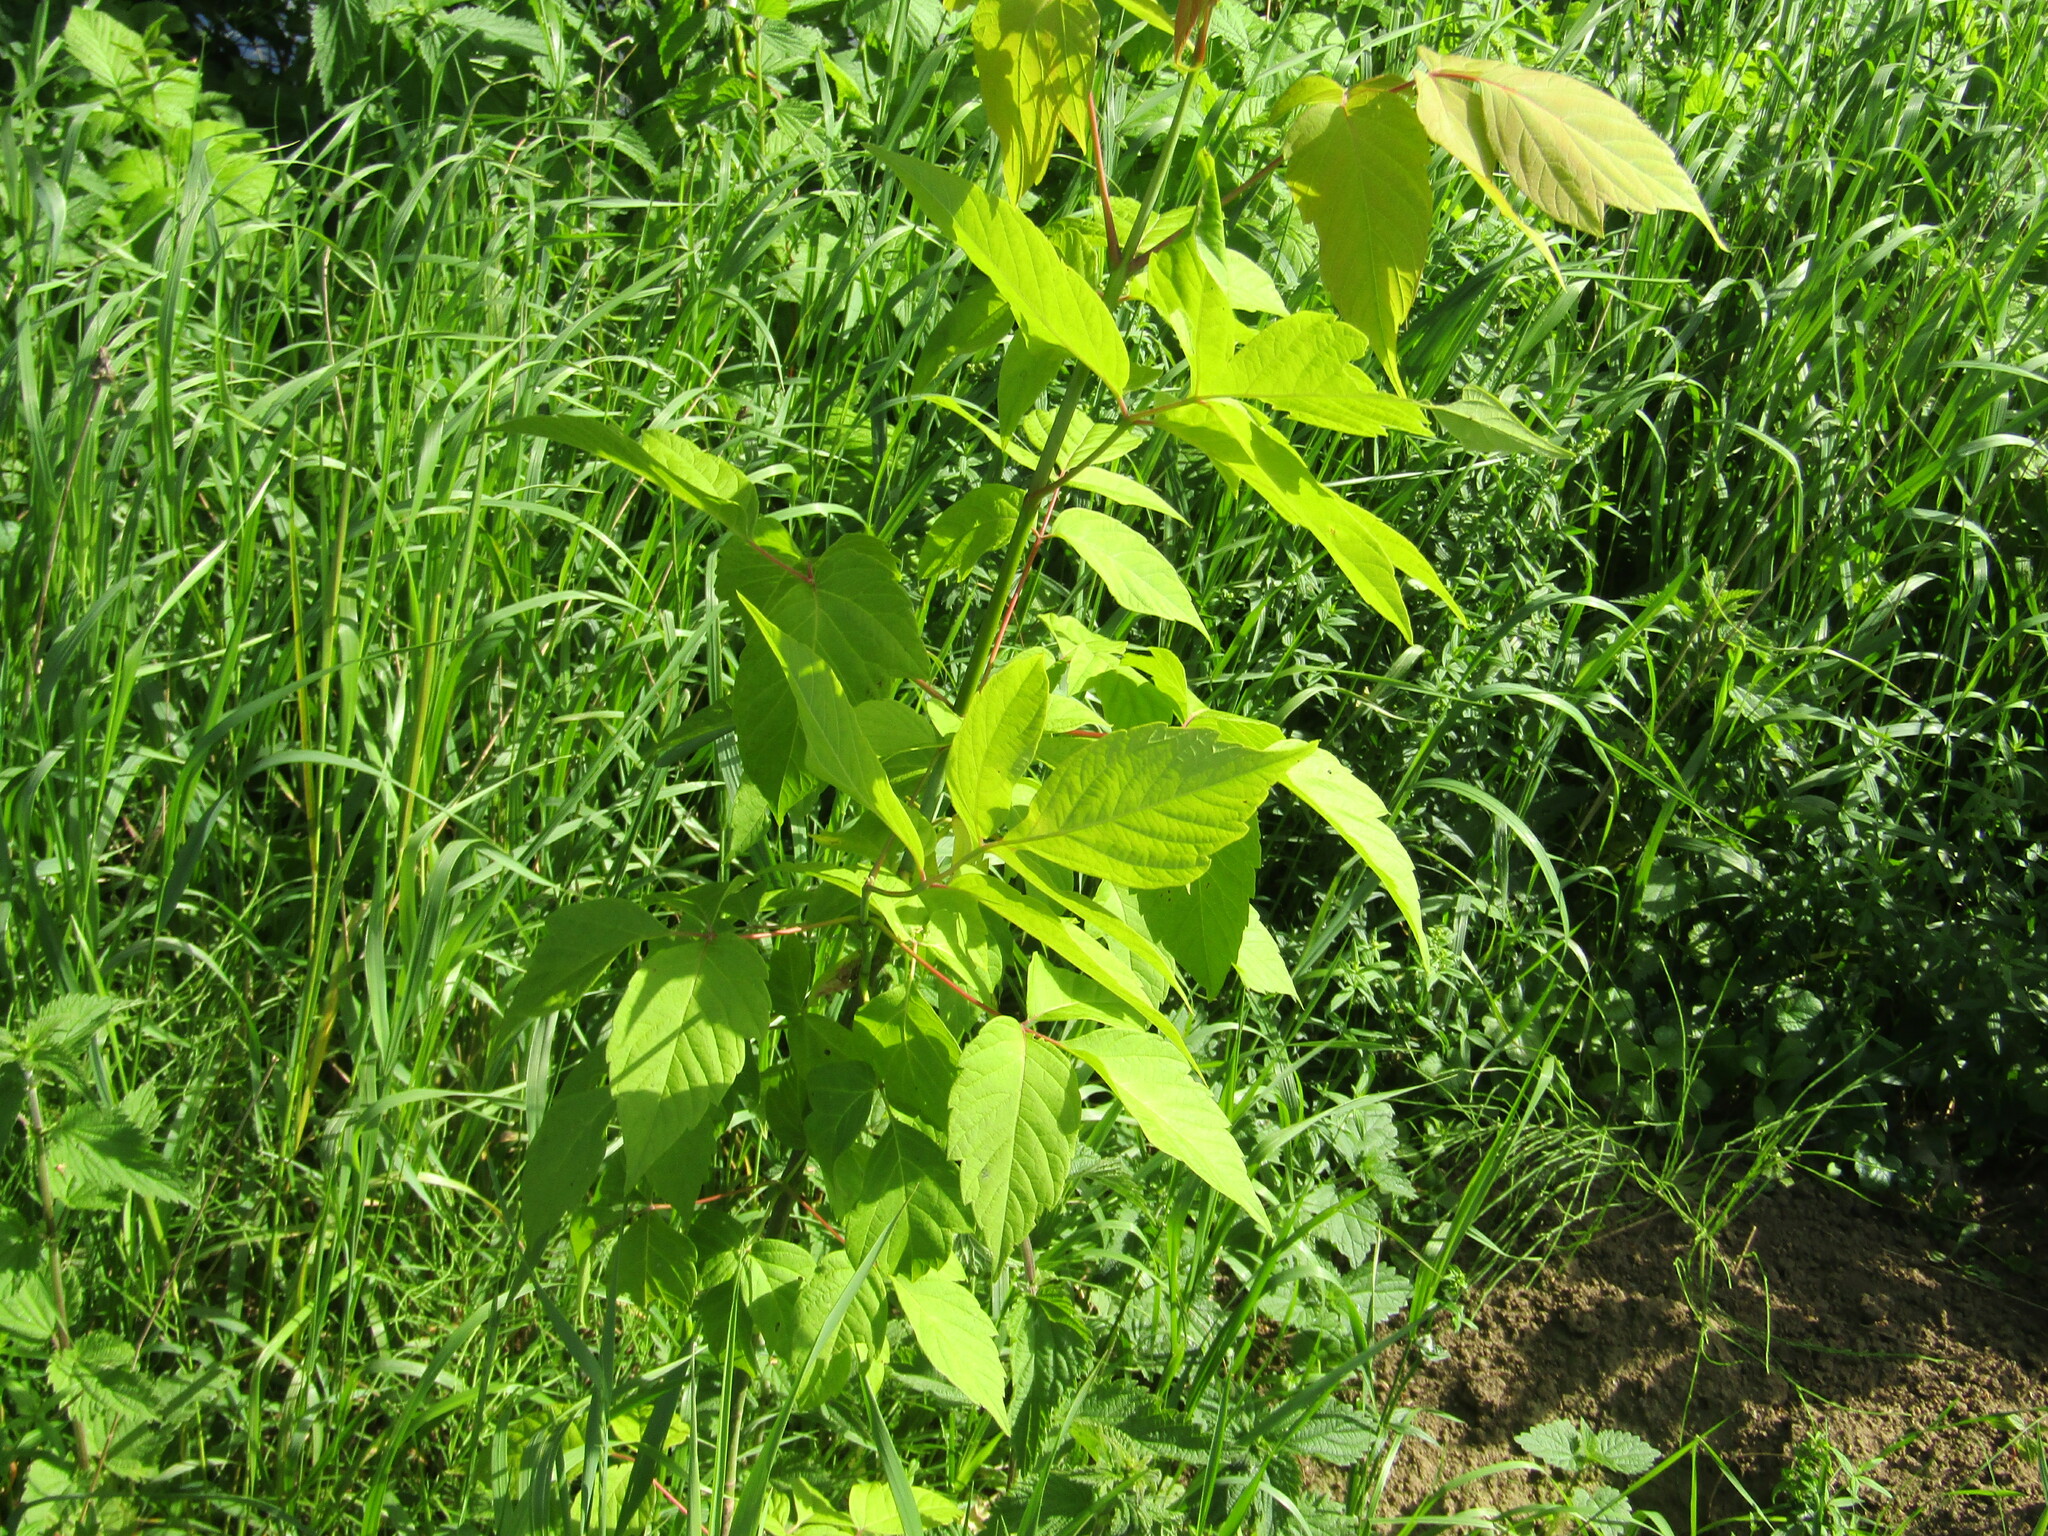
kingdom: Plantae
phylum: Tracheophyta
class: Magnoliopsida
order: Sapindales
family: Sapindaceae
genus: Acer
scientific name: Acer negundo
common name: Ashleaf maple
